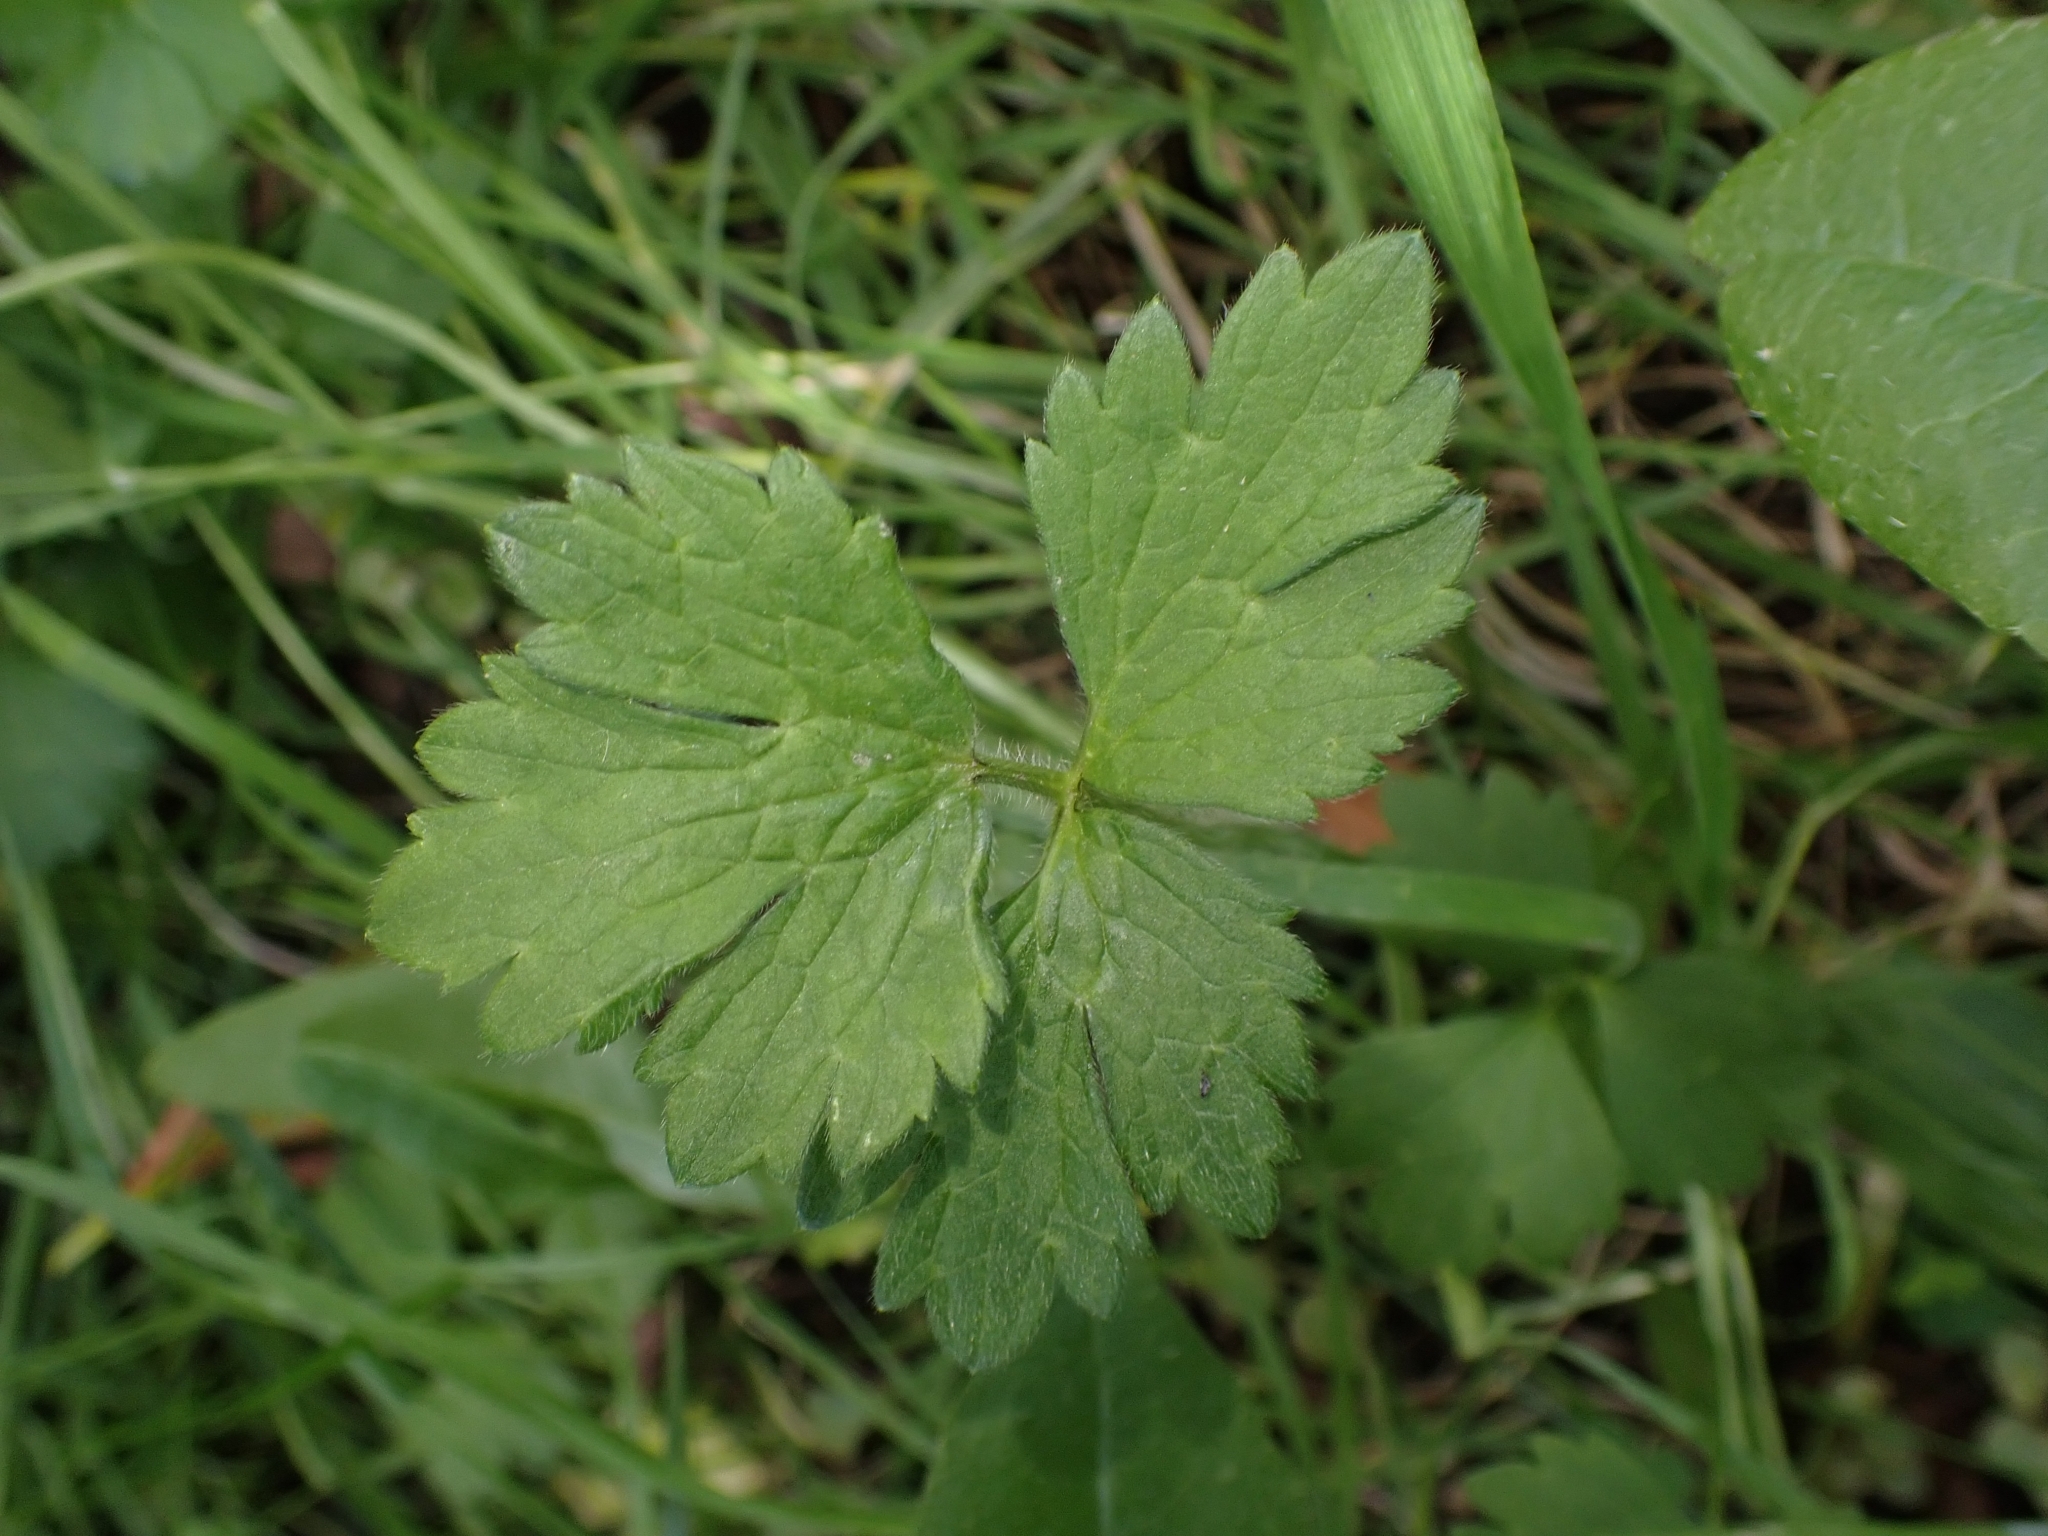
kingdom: Plantae
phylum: Tracheophyta
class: Magnoliopsida
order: Ranunculales
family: Ranunculaceae
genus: Ranunculus
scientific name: Ranunculus repens
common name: Creeping buttercup
